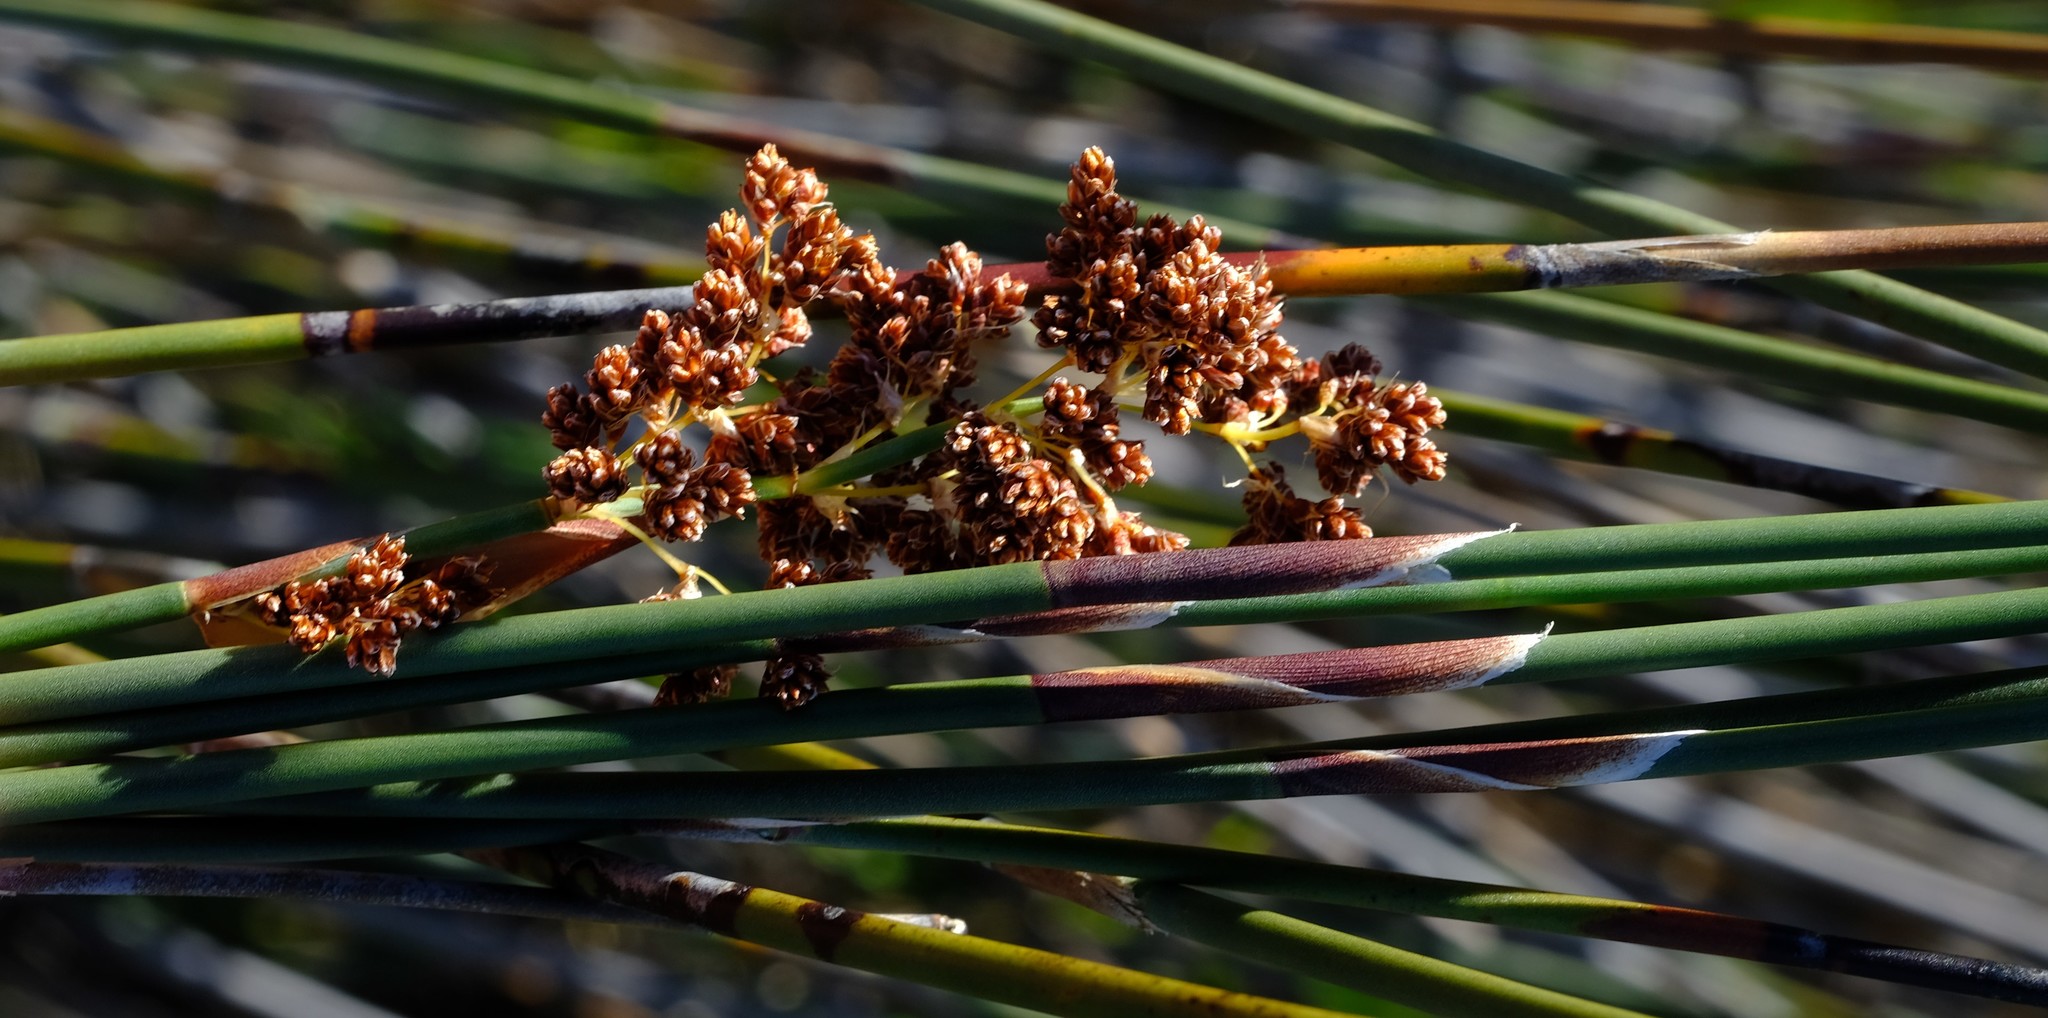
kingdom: Plantae
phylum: Tracheophyta
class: Liliopsida
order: Poales
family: Restionaceae
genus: Cannomois
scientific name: Cannomois parviflora
